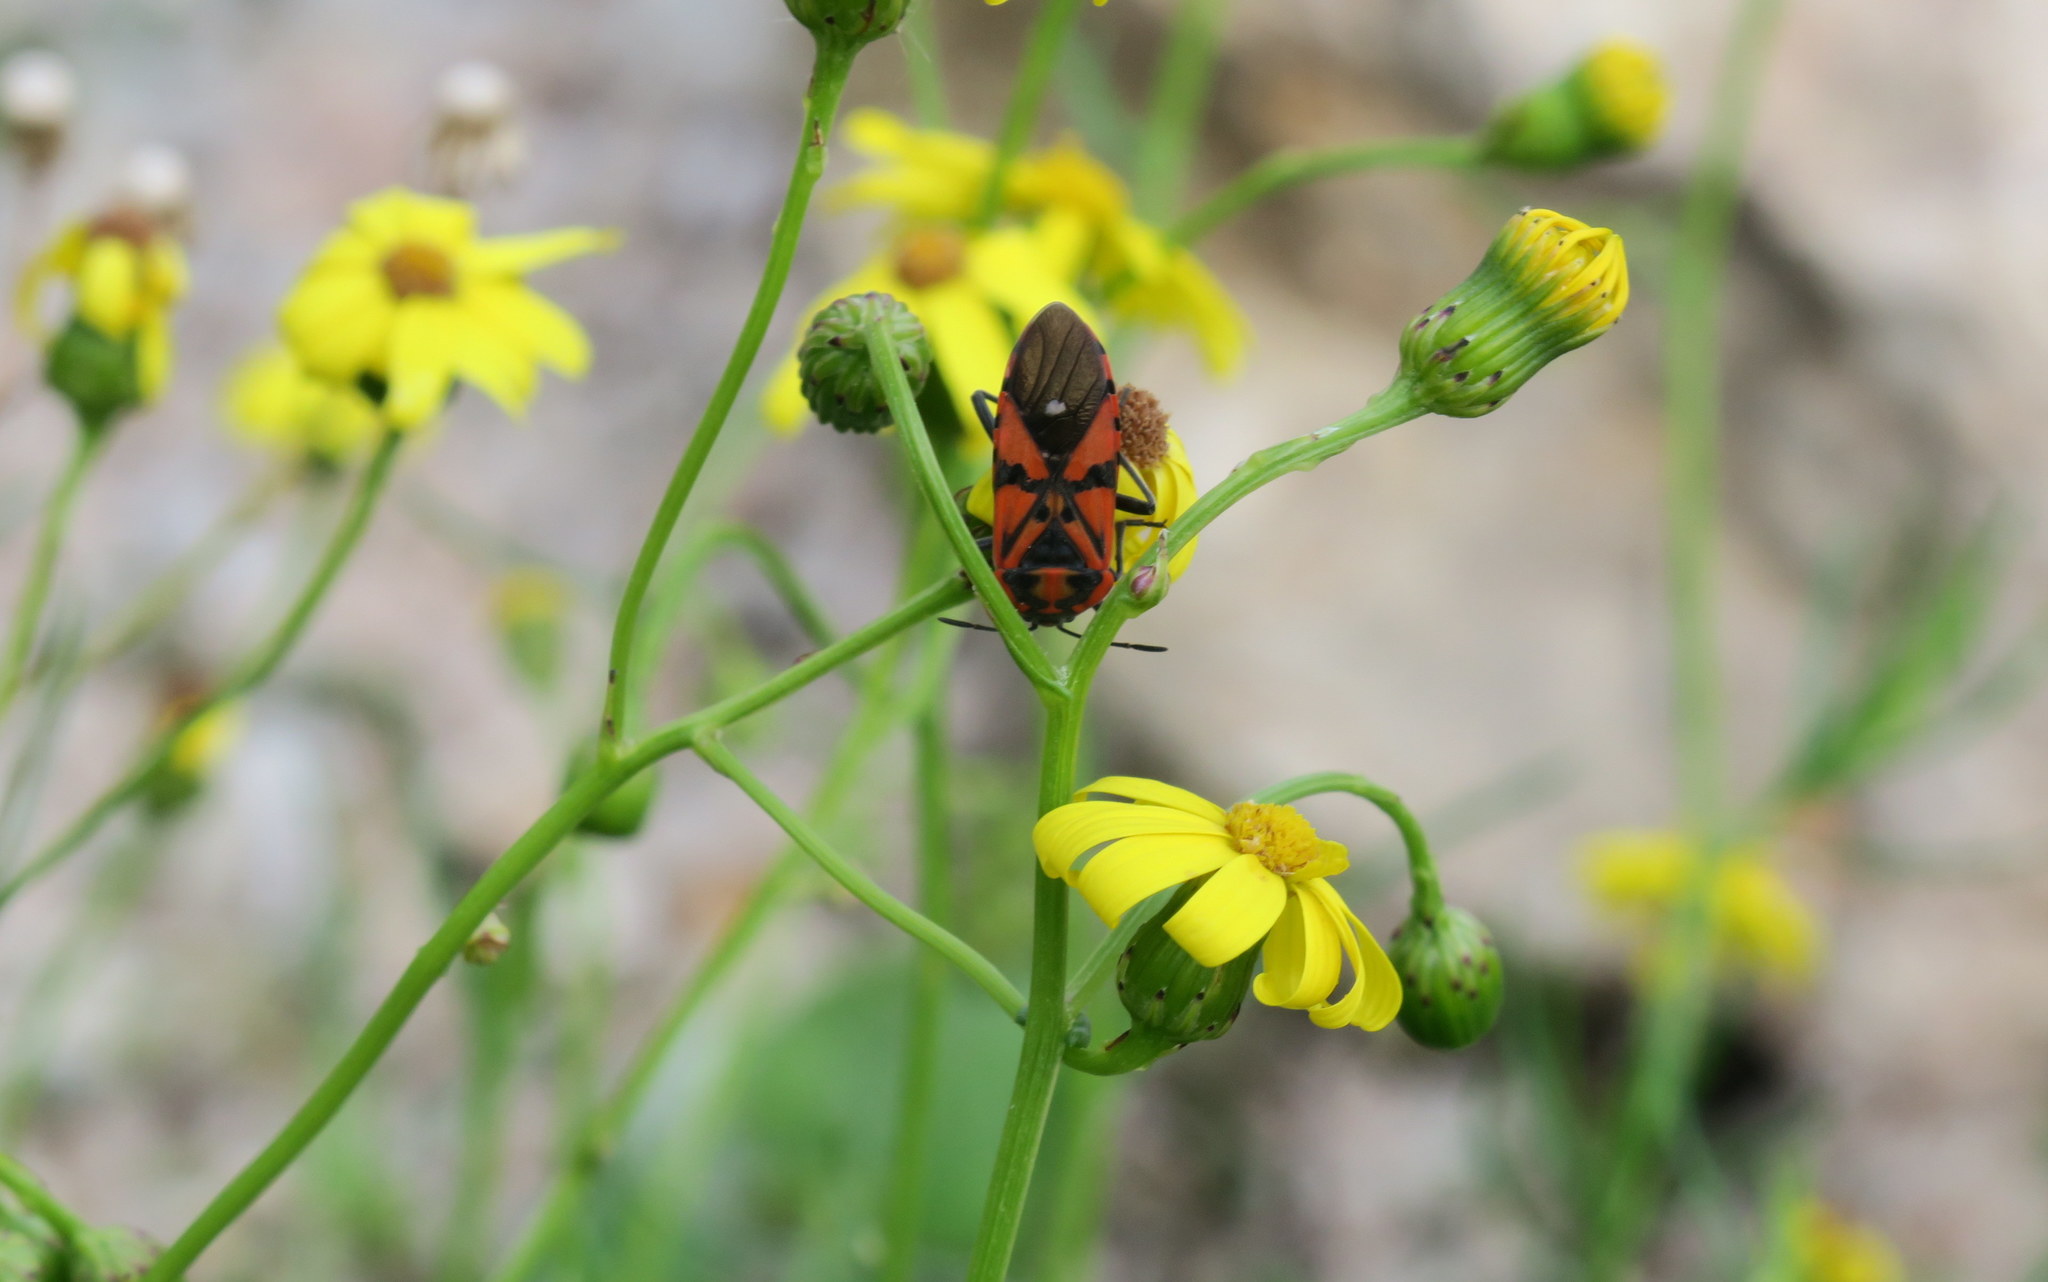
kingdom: Animalia
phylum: Arthropoda
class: Insecta
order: Hemiptera
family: Lygaeidae
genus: Spilostethus
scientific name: Spilostethus pandurus
